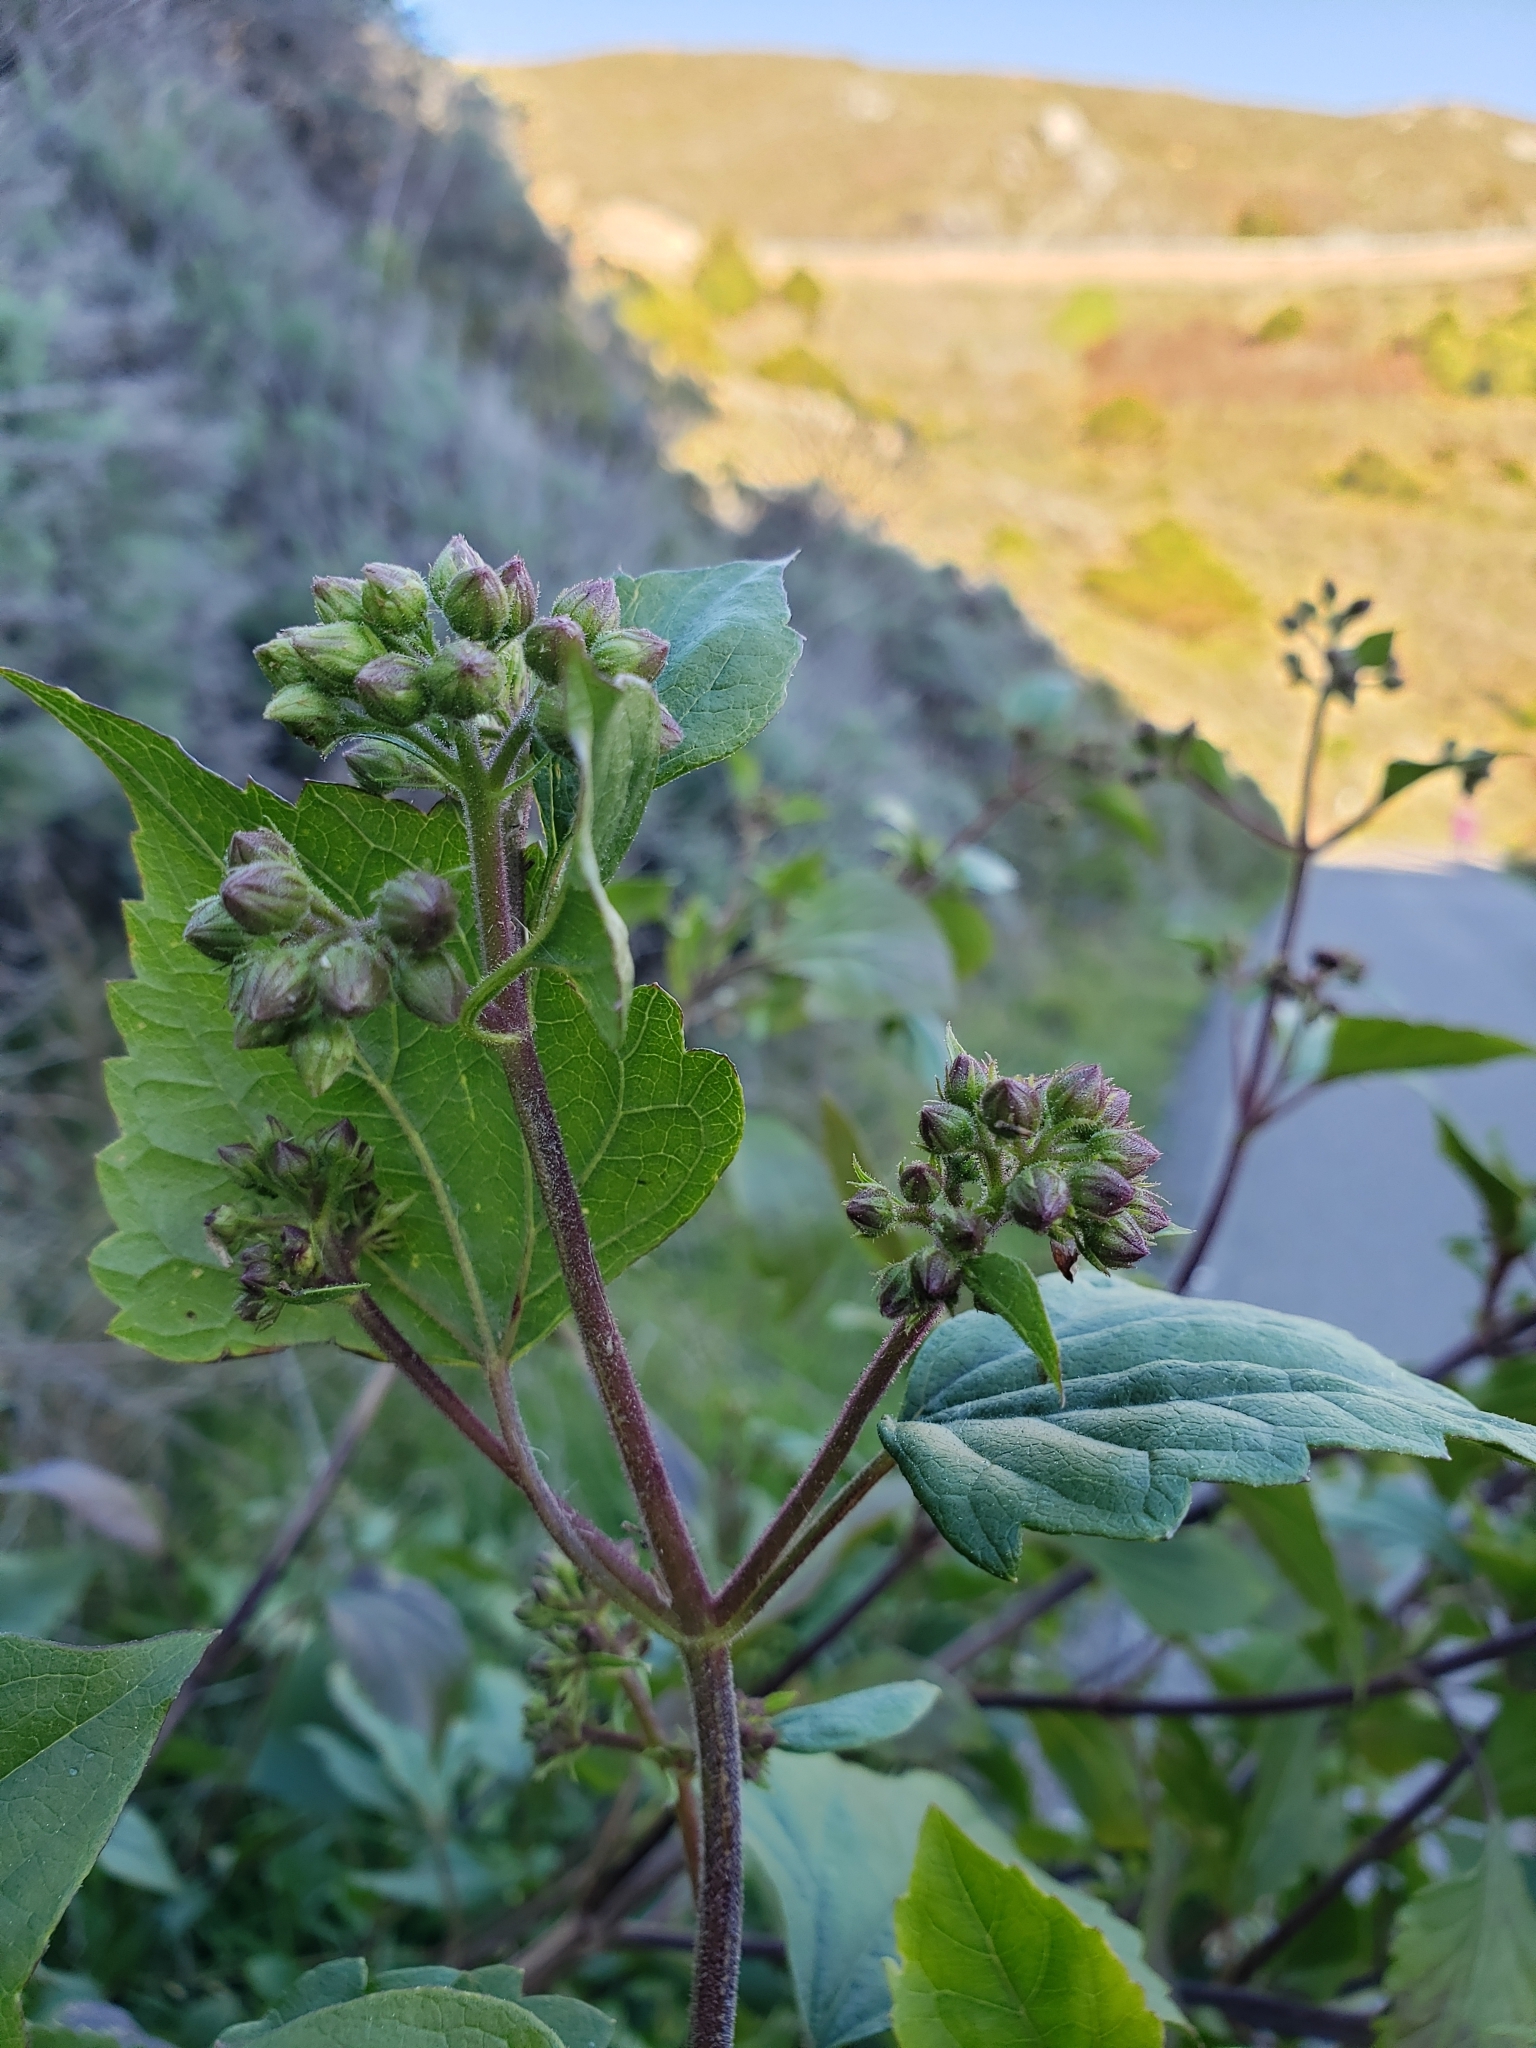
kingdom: Plantae
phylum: Tracheophyta
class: Magnoliopsida
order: Asterales
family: Asteraceae
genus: Ageratina
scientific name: Ageratina adenophora
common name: Sticky snakeroot
